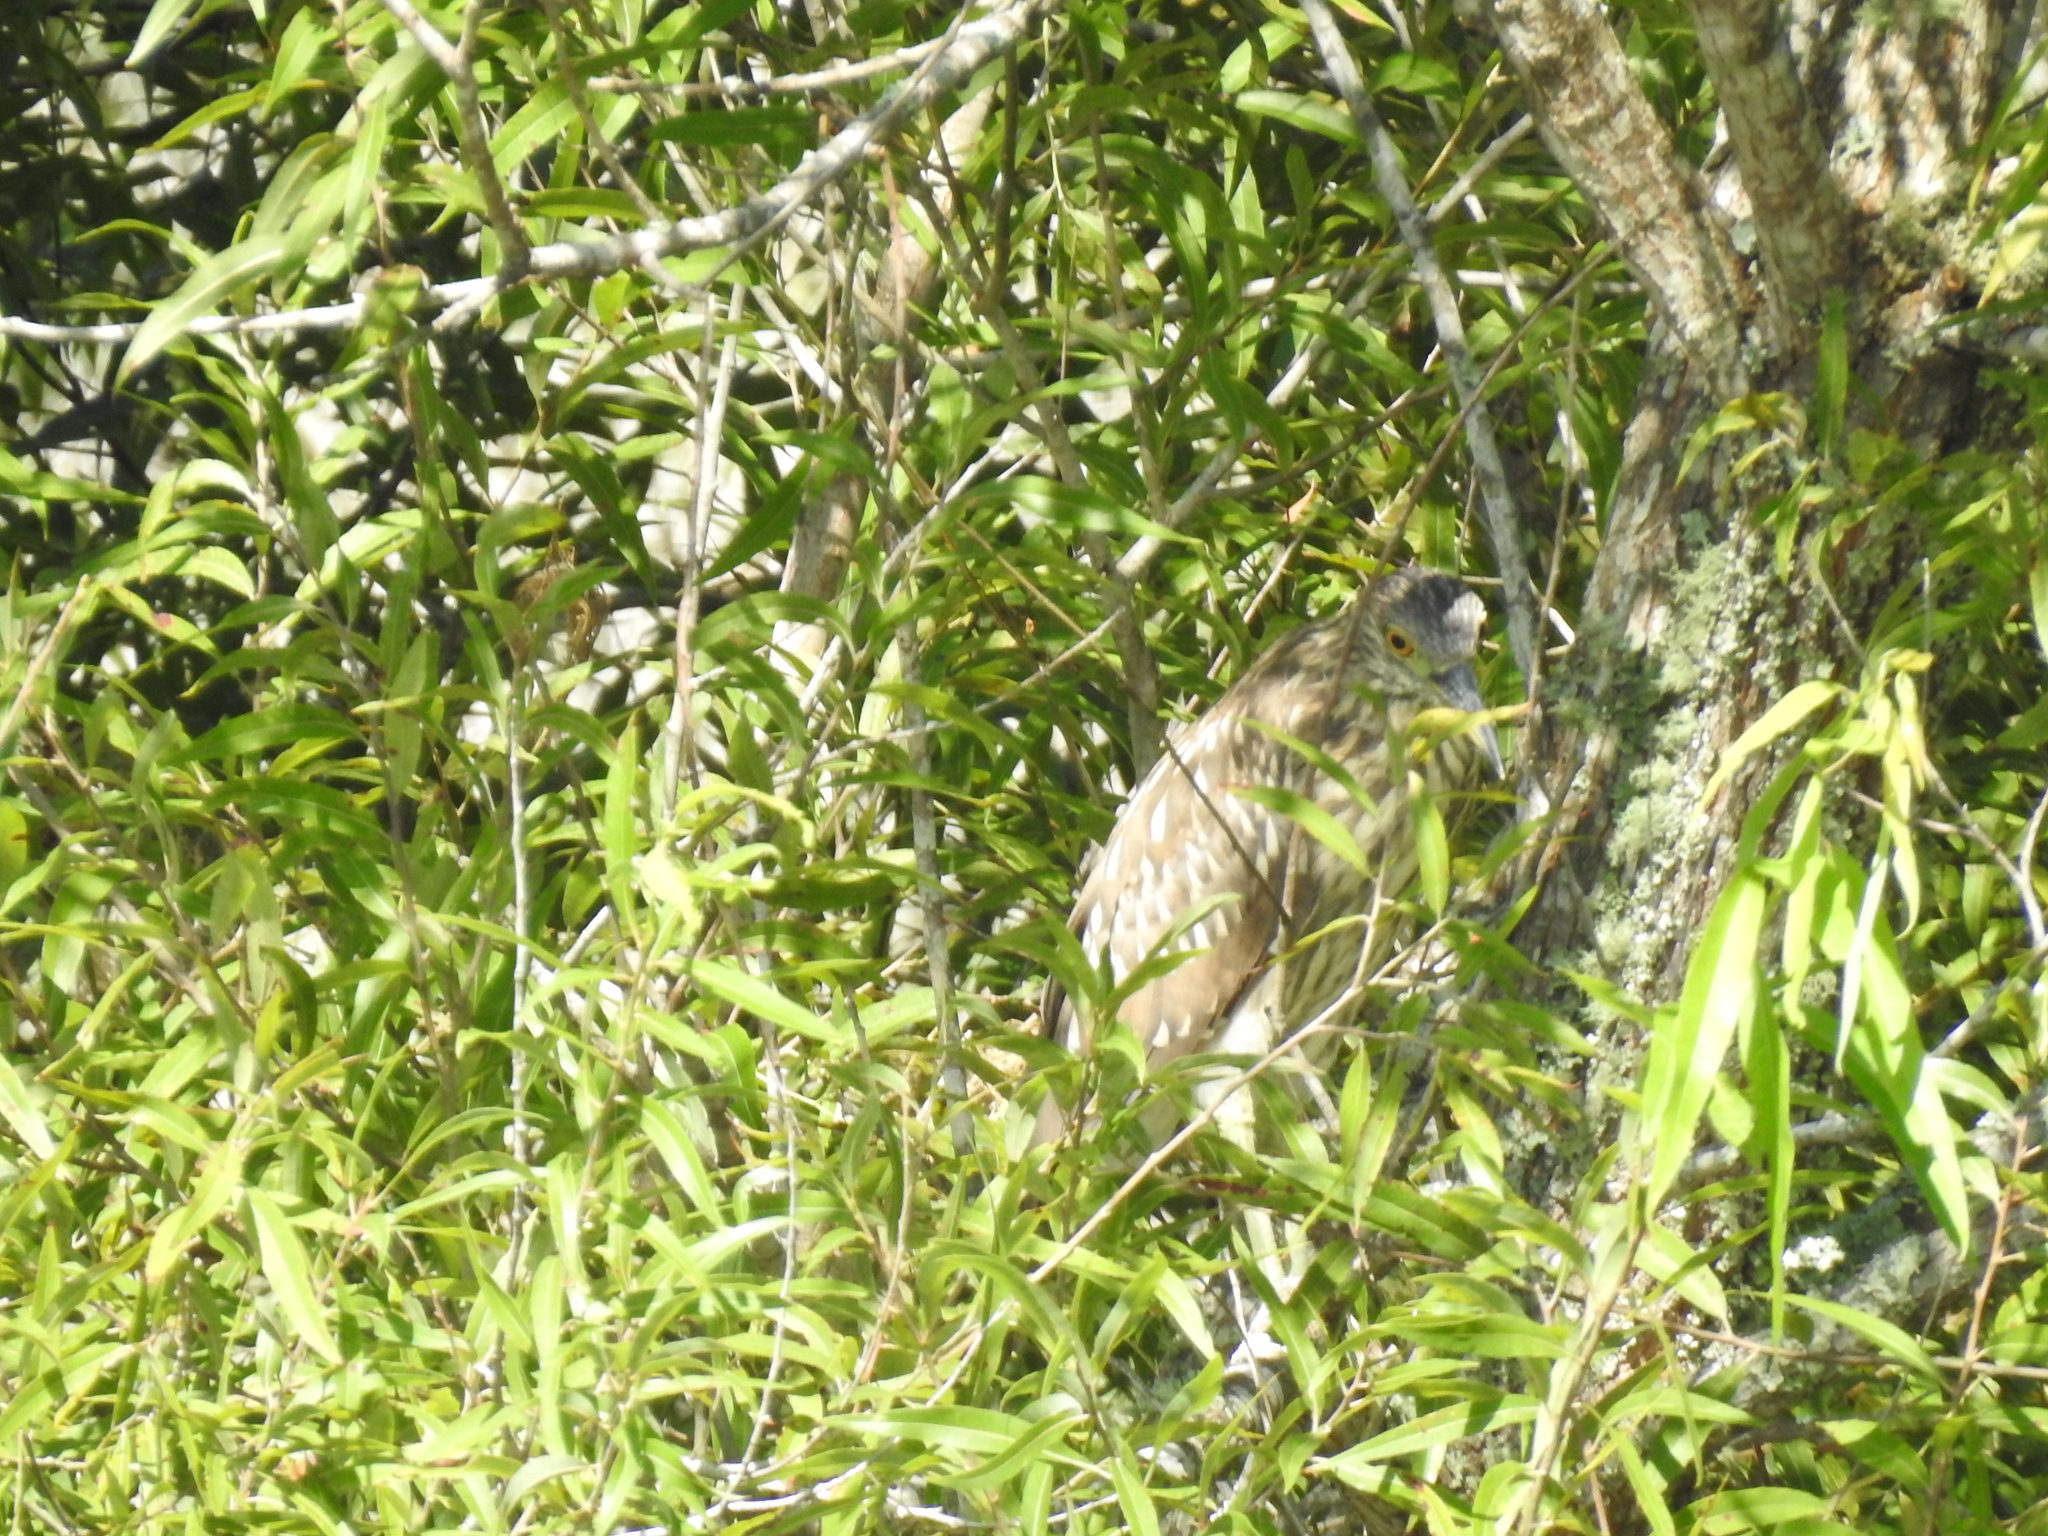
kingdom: Animalia
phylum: Chordata
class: Aves
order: Pelecaniformes
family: Ardeidae
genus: Nycticorax
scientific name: Nycticorax nycticorax
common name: Black-crowned night heron
